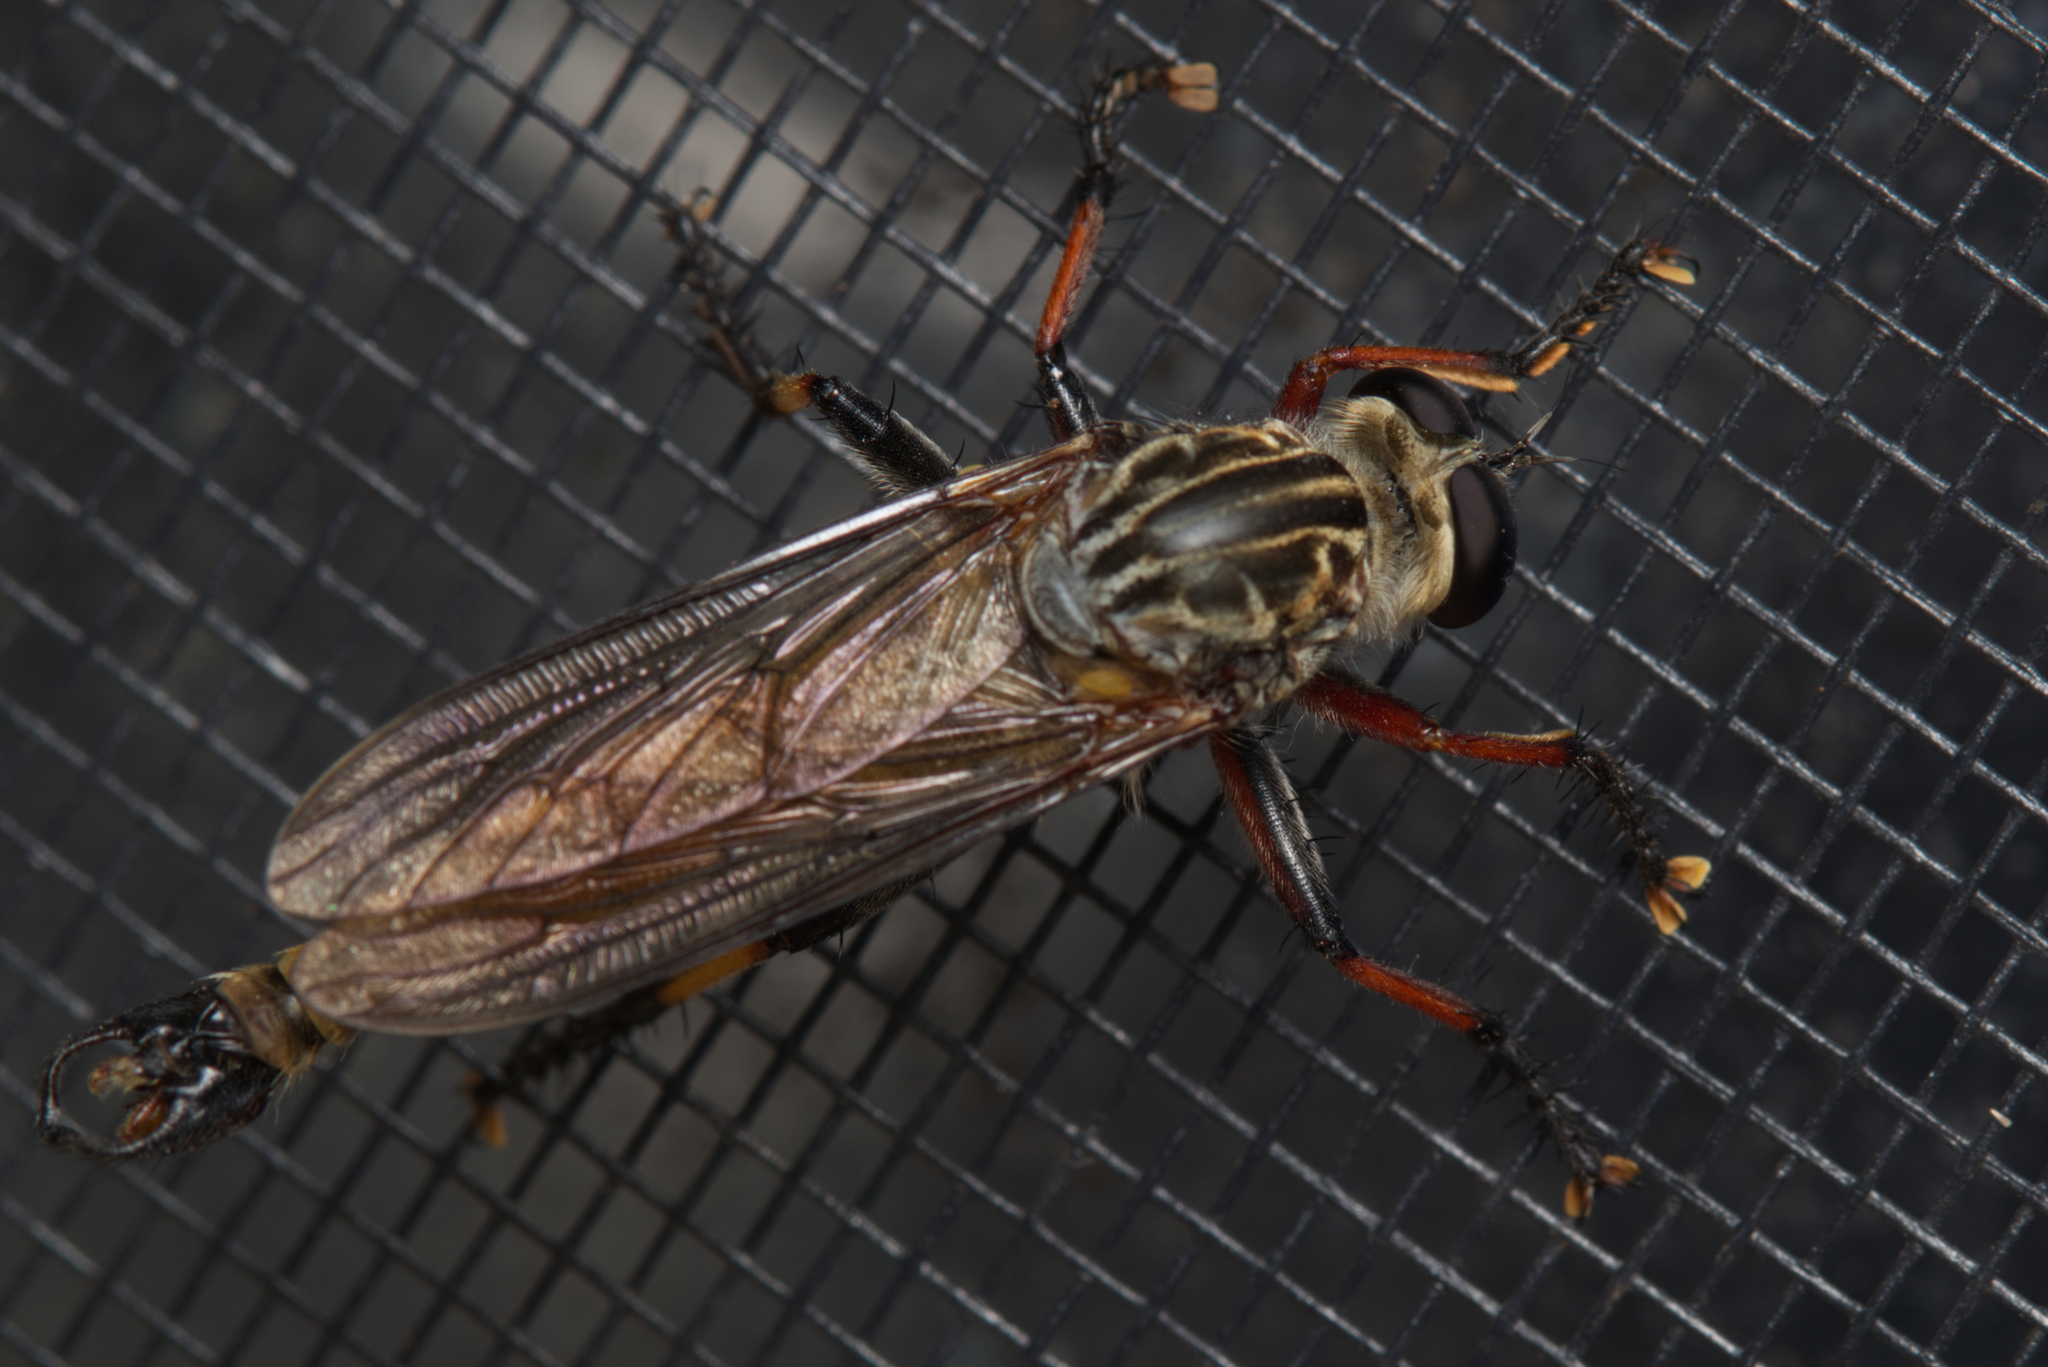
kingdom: Animalia
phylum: Arthropoda
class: Insecta
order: Diptera
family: Asilidae
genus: Dolopus
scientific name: Dolopus simulans
